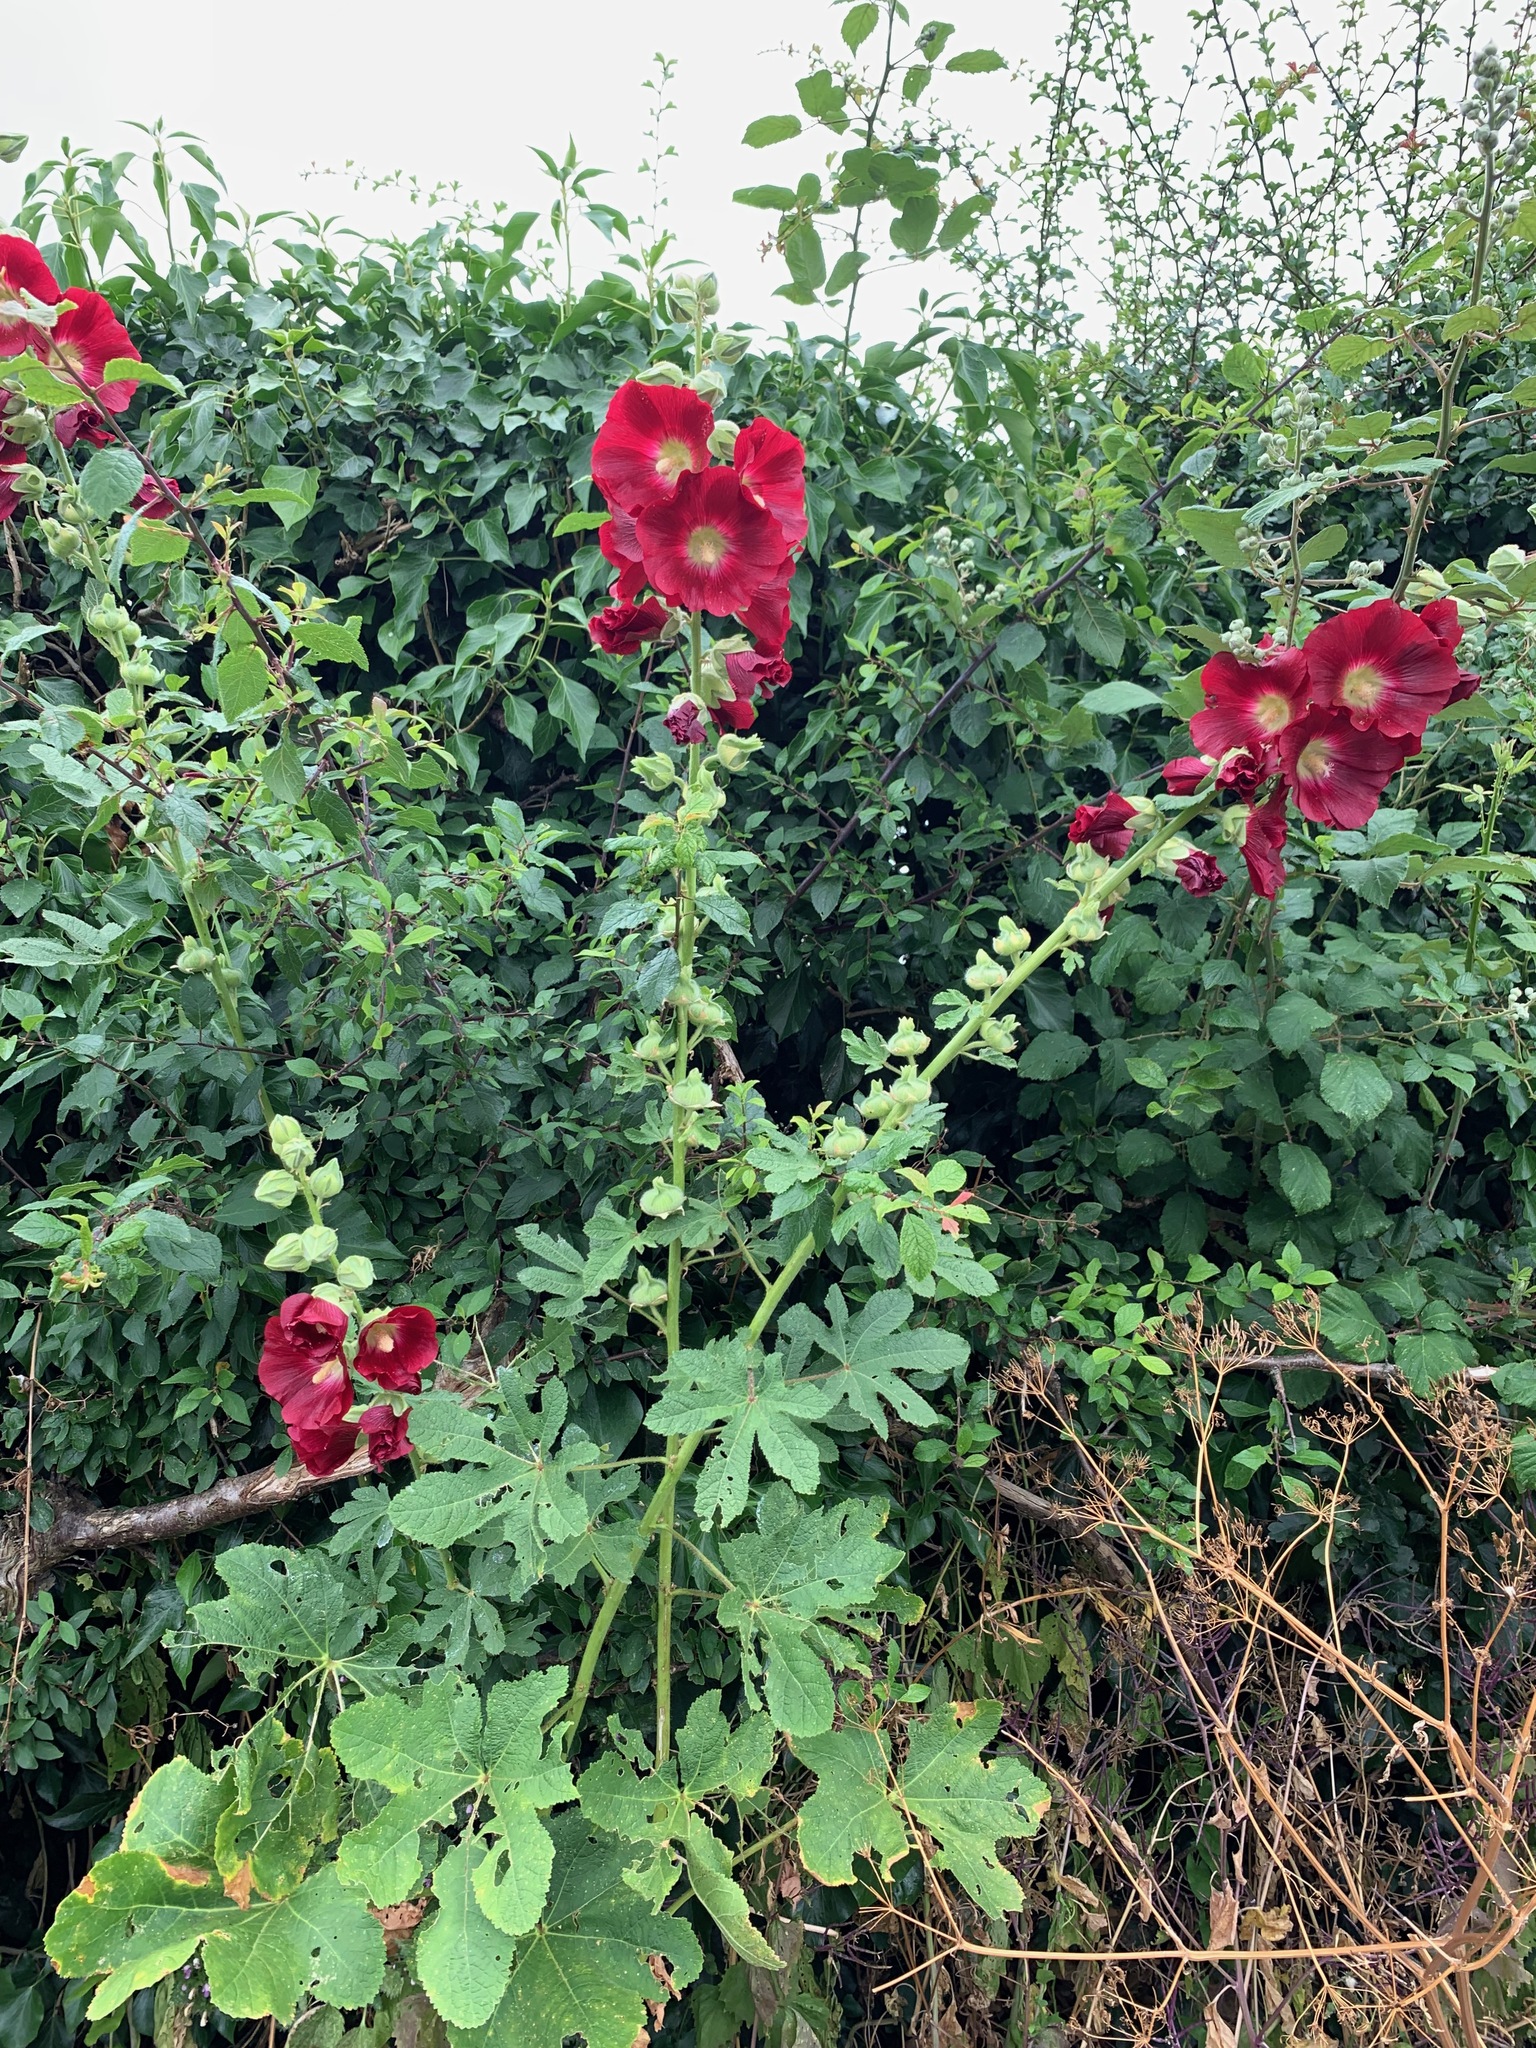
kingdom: Plantae
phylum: Tracheophyta
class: Magnoliopsida
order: Malvales
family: Malvaceae
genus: Alcea
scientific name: Alcea rosea
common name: Hollyhock
